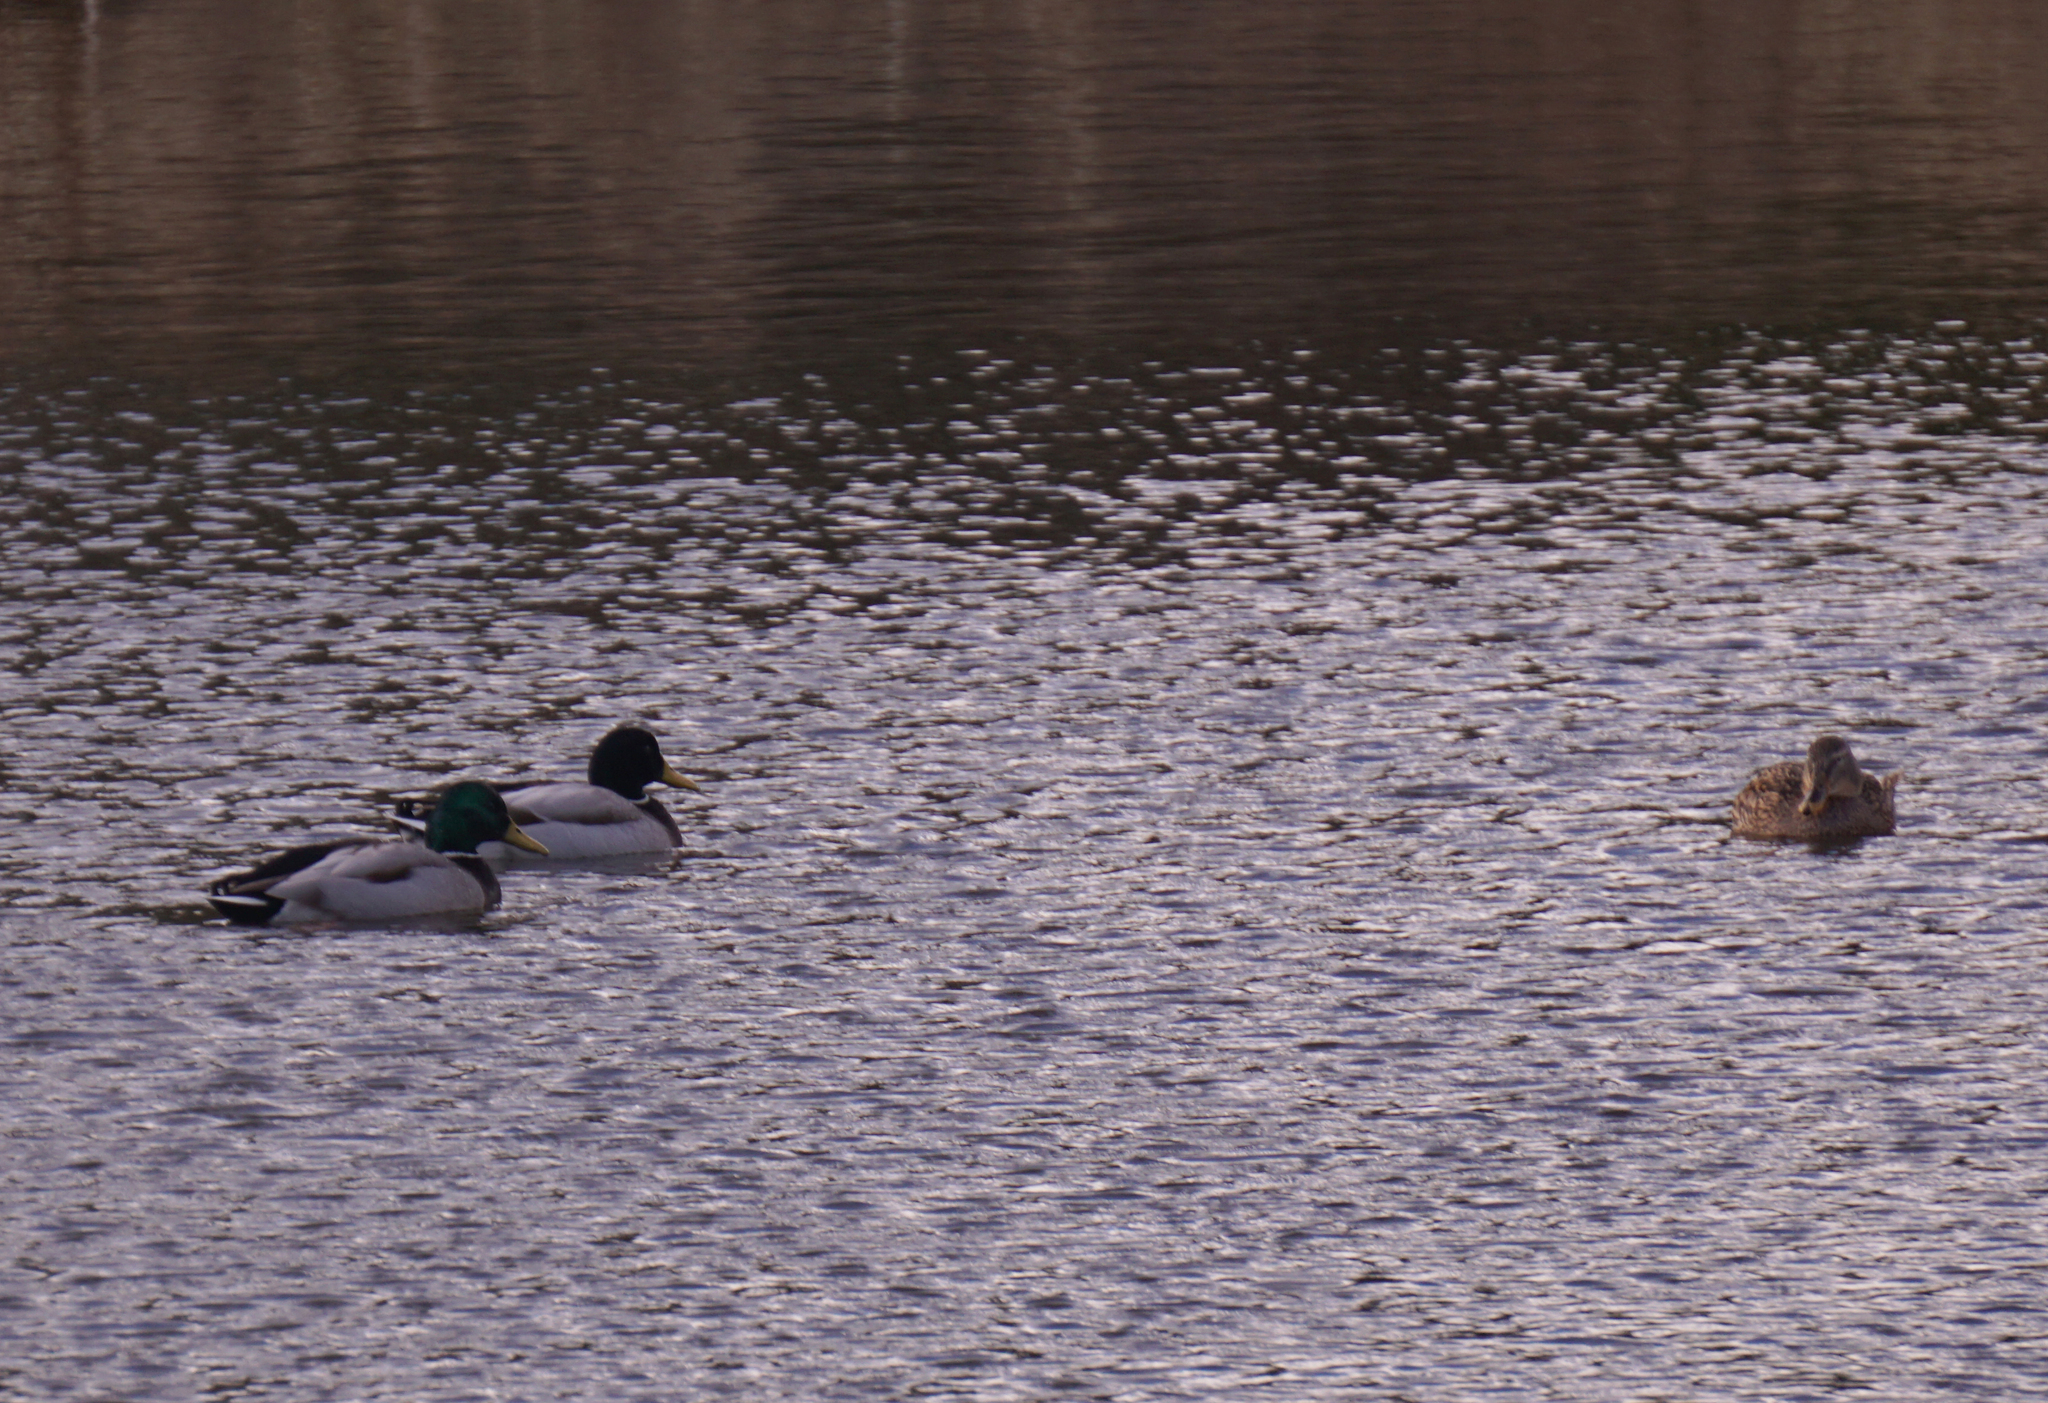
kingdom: Animalia
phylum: Chordata
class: Aves
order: Anseriformes
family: Anatidae
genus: Anas
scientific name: Anas platyrhynchos
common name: Mallard
